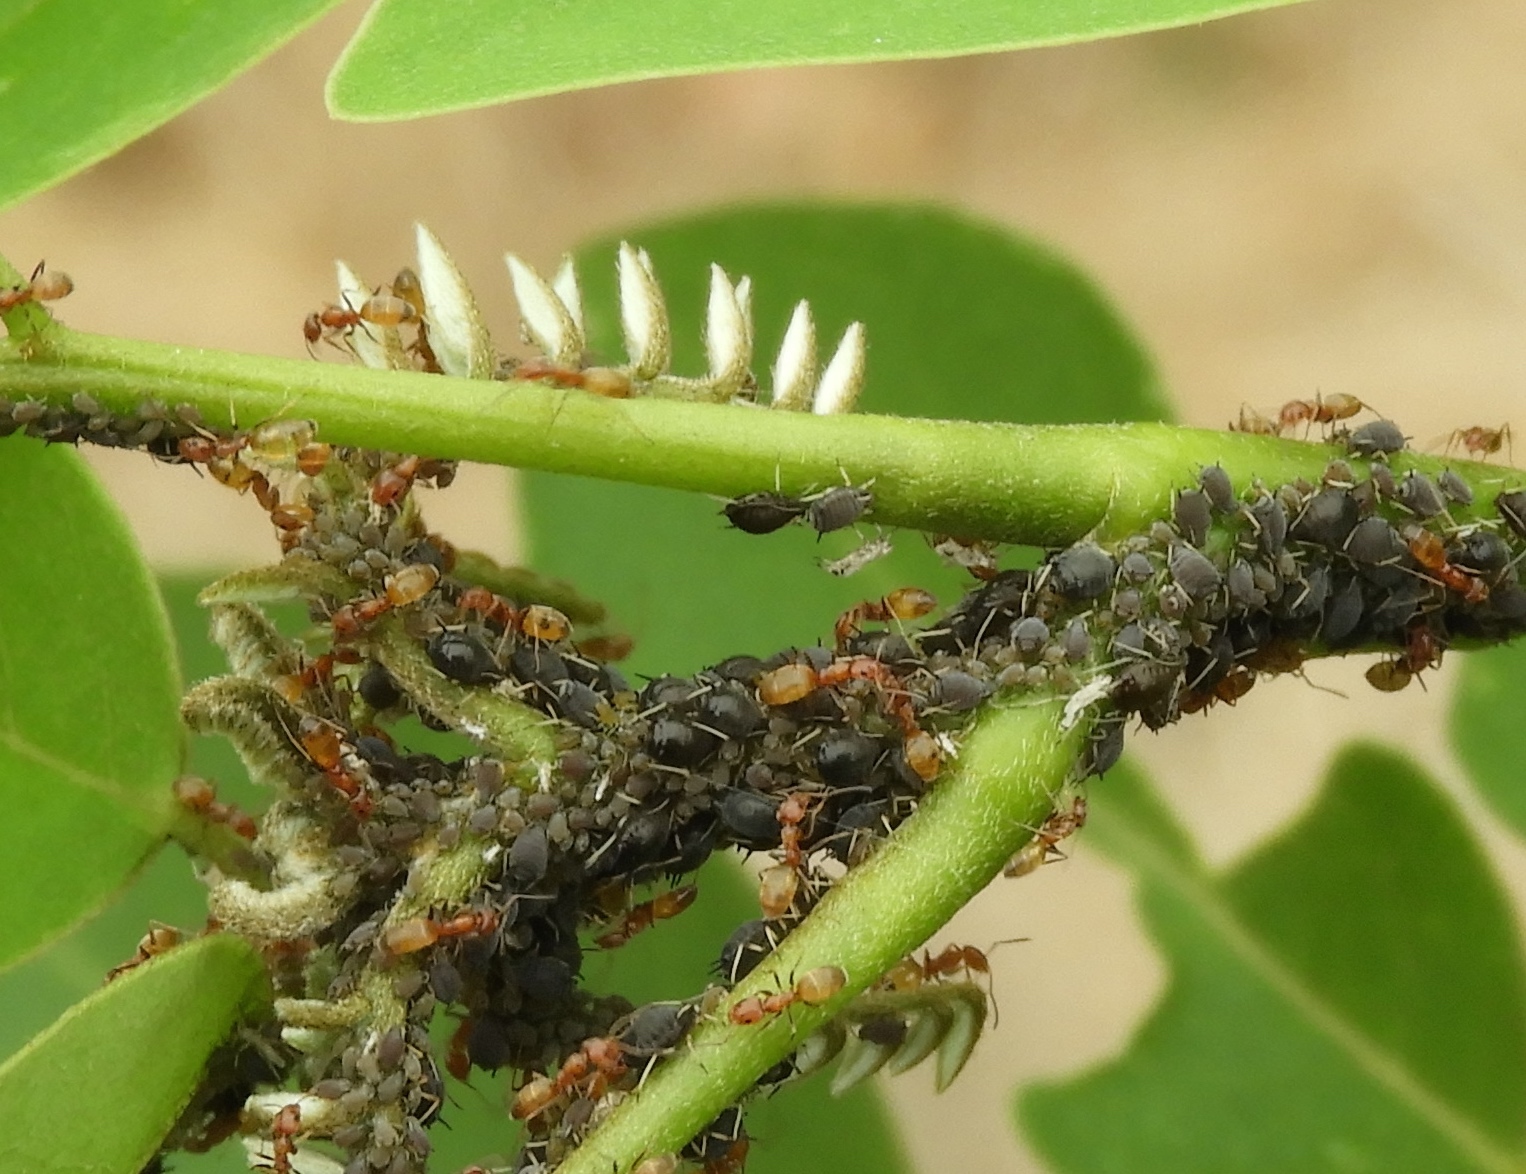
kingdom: Animalia
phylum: Arthropoda
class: Insecta
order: Hymenoptera
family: Formicidae
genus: Forelius
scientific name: Forelius
